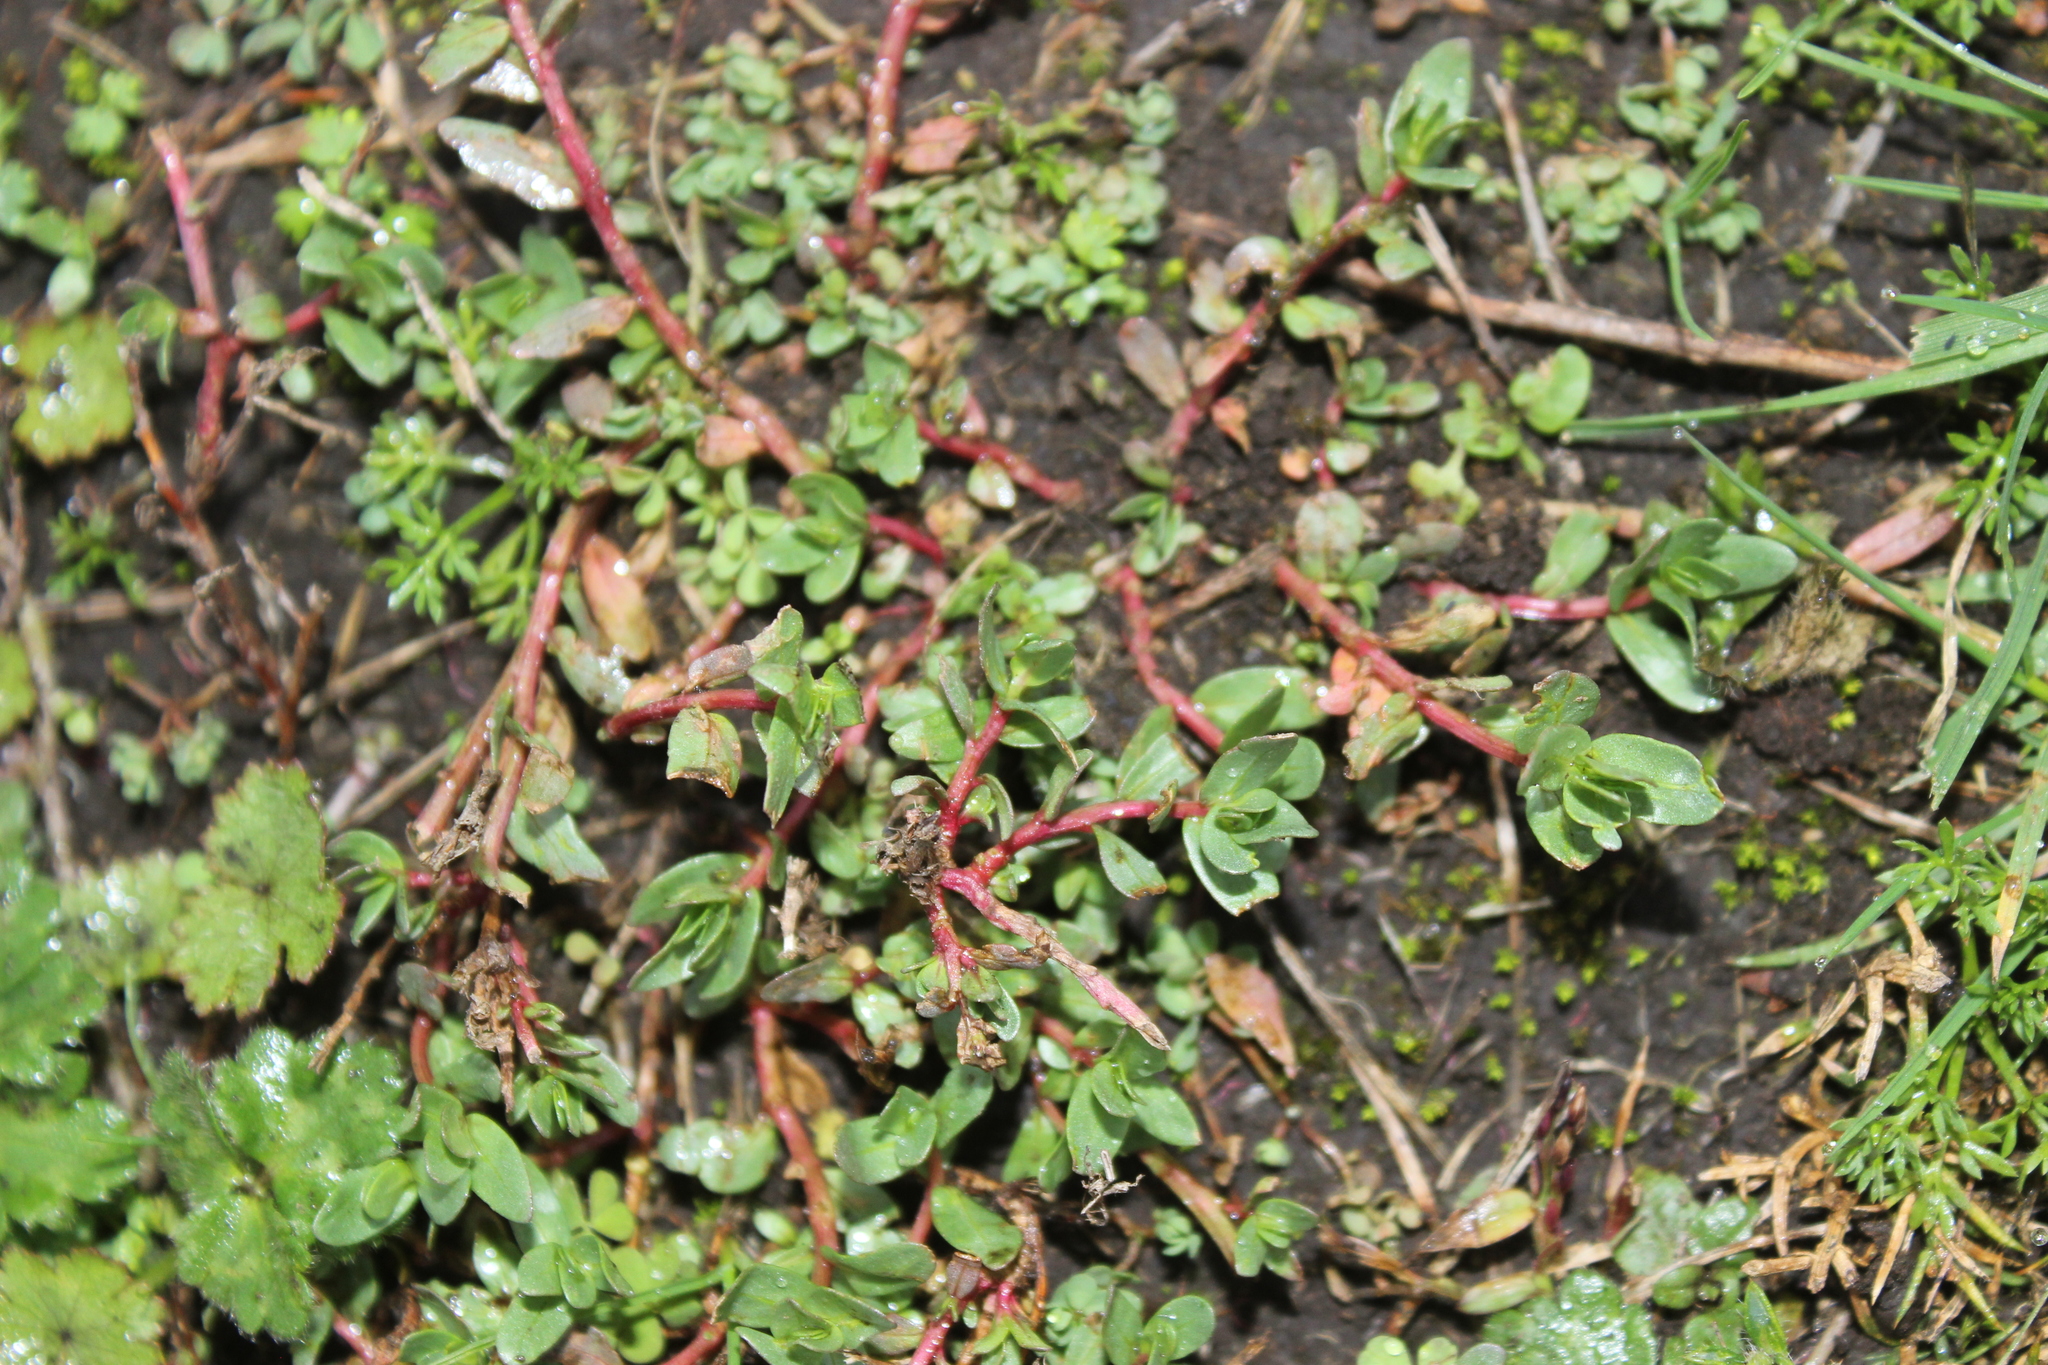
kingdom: Plantae
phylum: Tracheophyta
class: Magnoliopsida
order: Caryophyllales
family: Portulacaceae
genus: Portulaca
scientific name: Portulaca oleracea
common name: Common purslane
